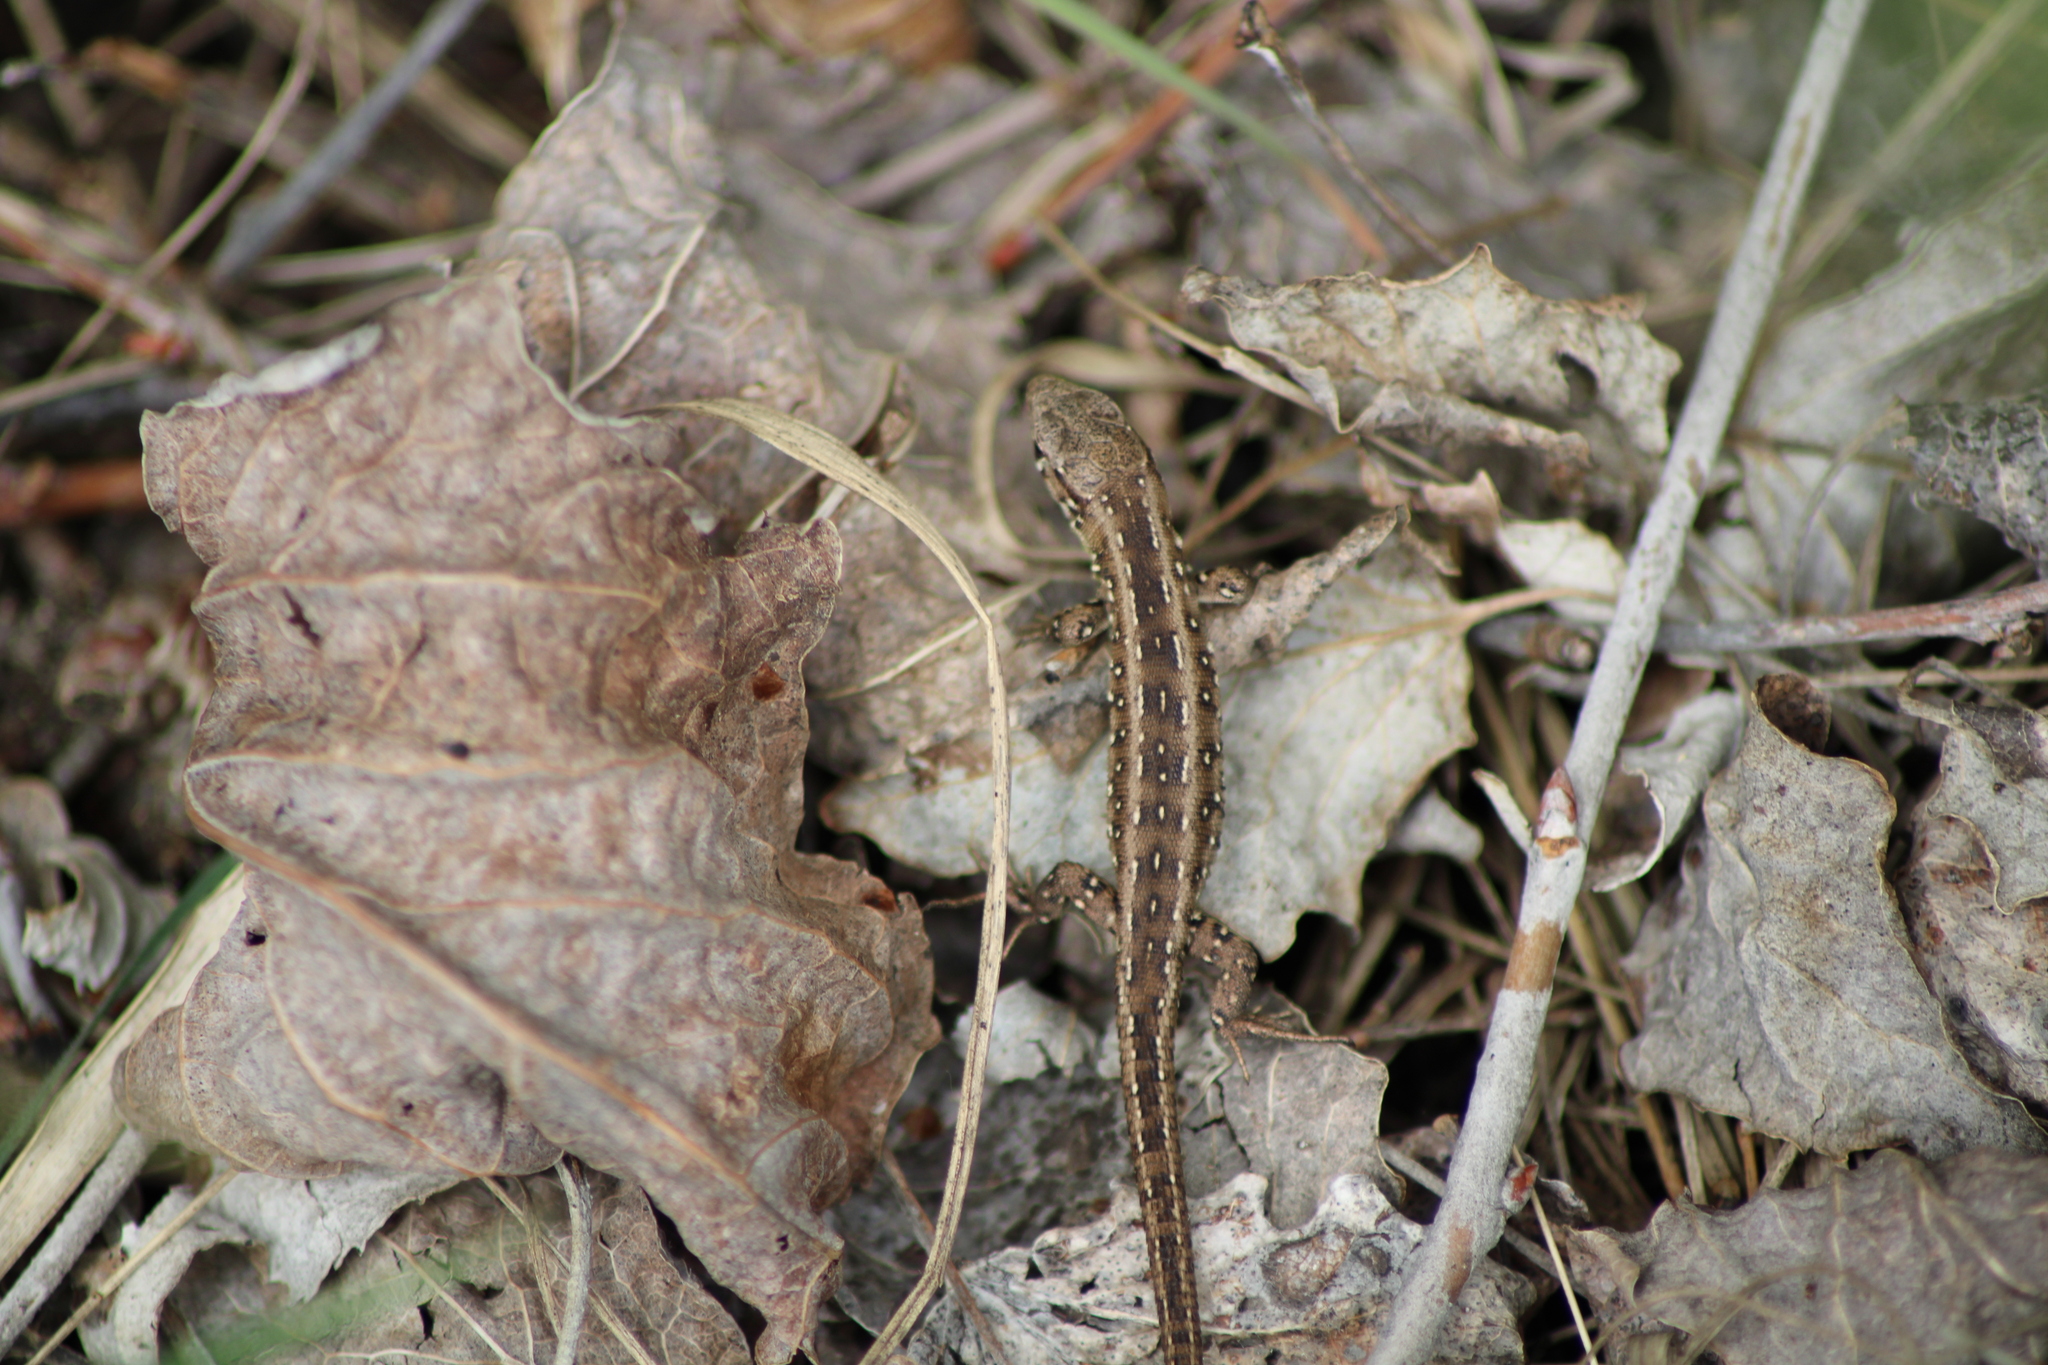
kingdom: Animalia
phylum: Chordata
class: Squamata
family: Lacertidae
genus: Lacerta
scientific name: Lacerta agilis
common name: Sand lizard
